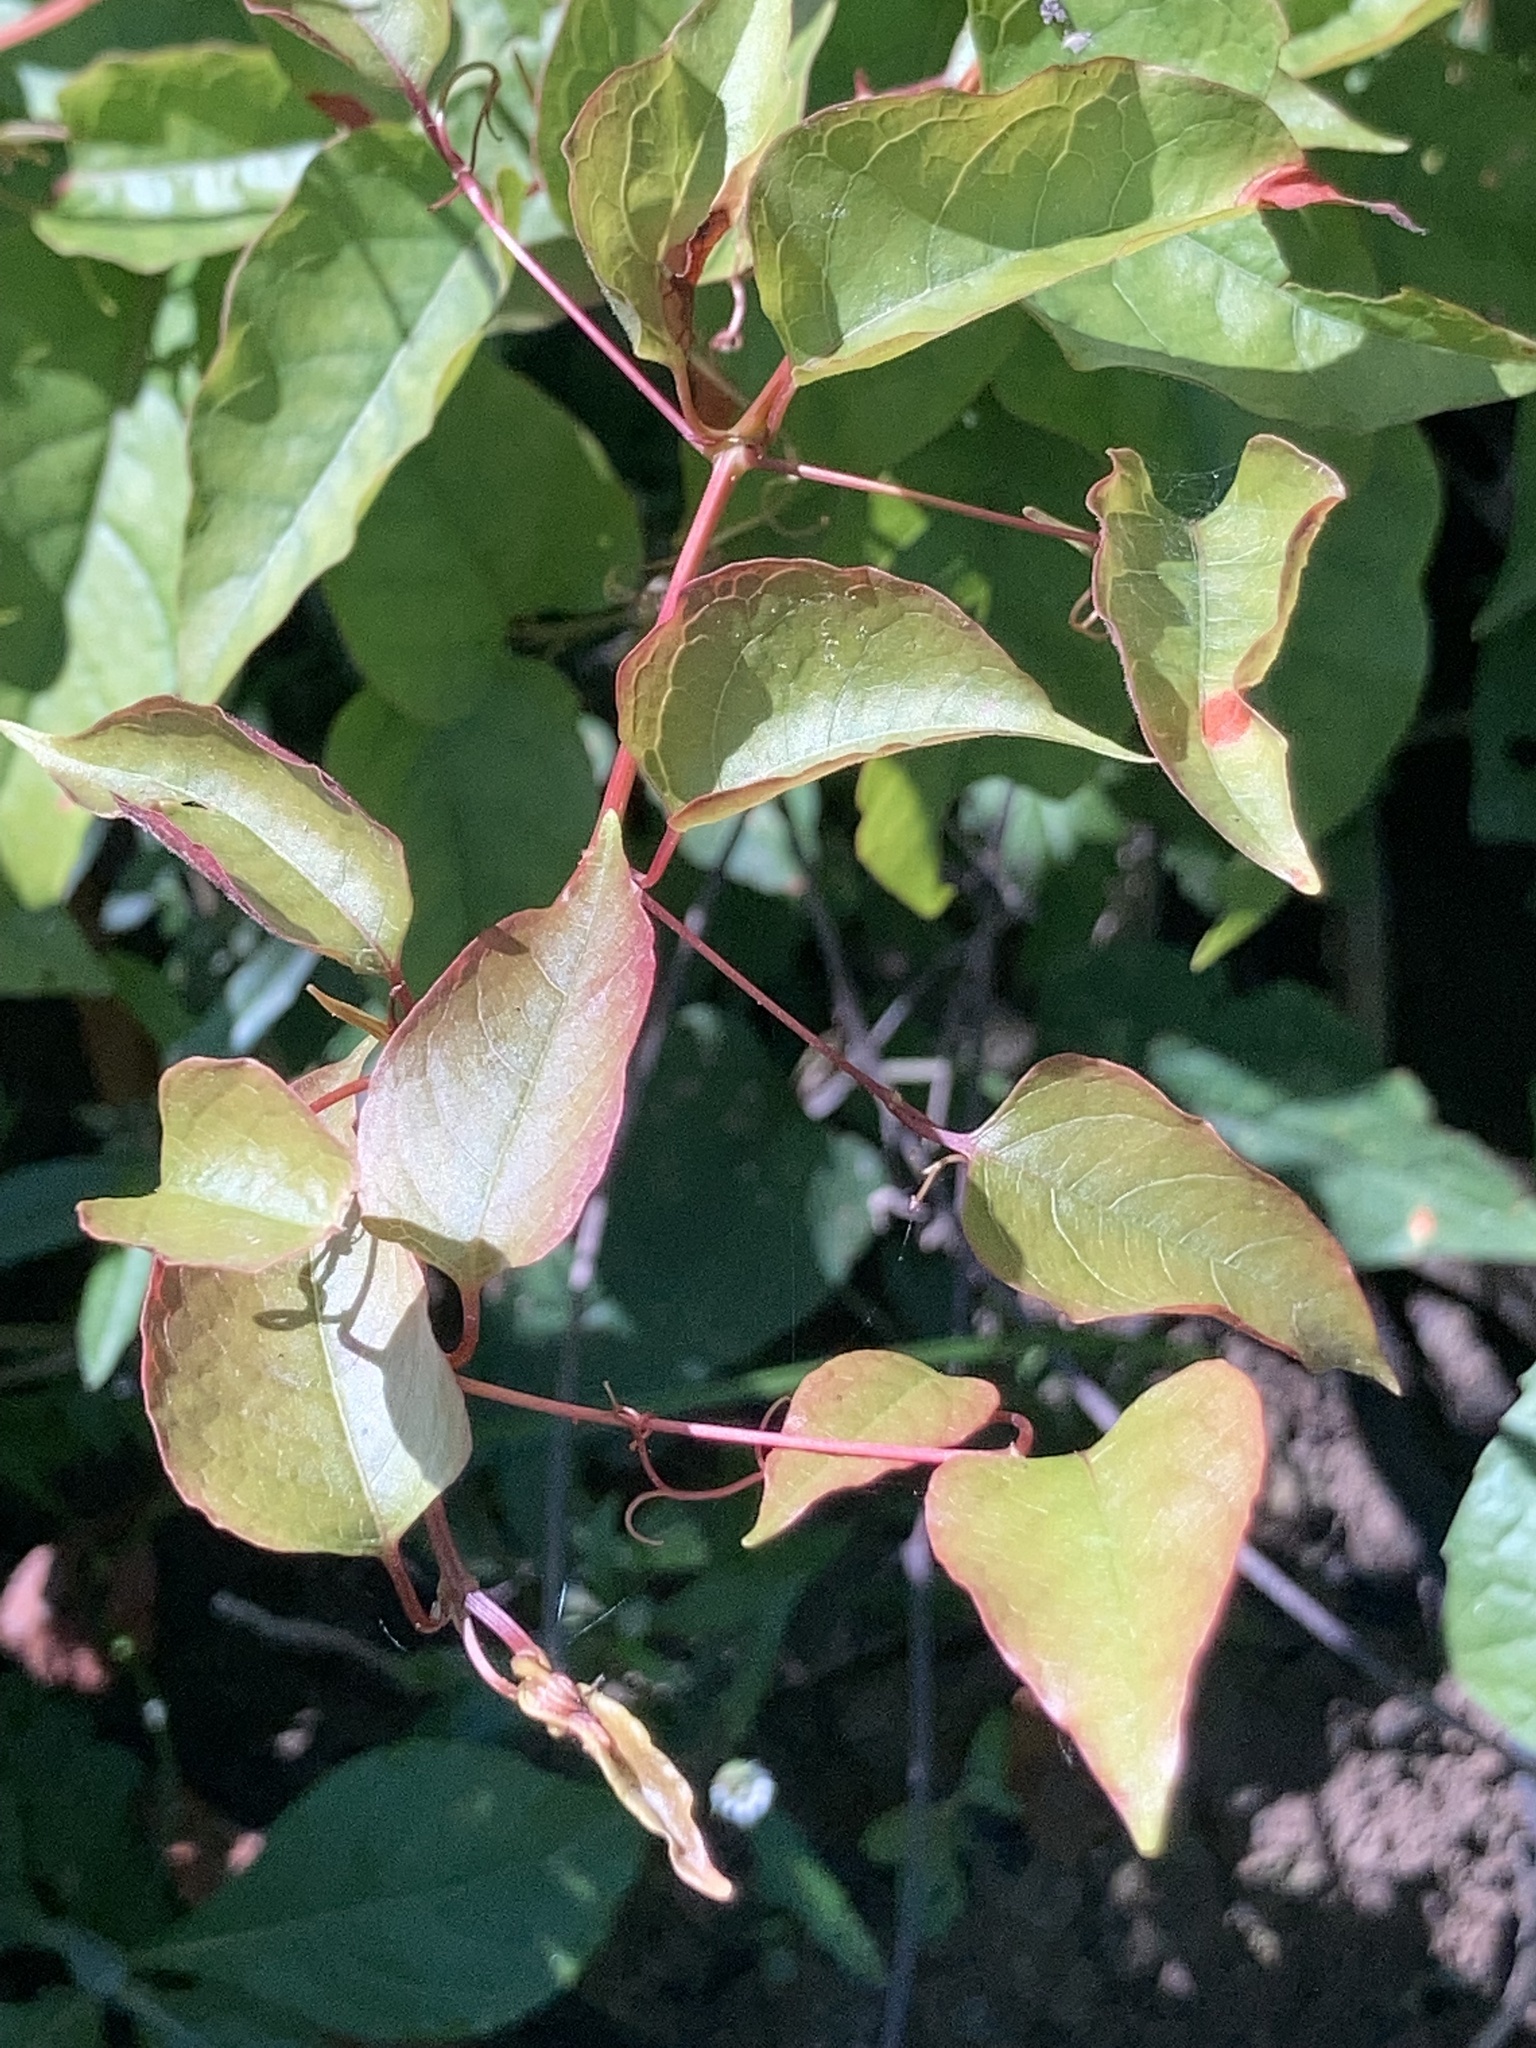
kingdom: Plantae
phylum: Tracheophyta
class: Magnoliopsida
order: Caryophyllales
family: Polygonaceae
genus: Brunnichia
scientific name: Brunnichia ovata
